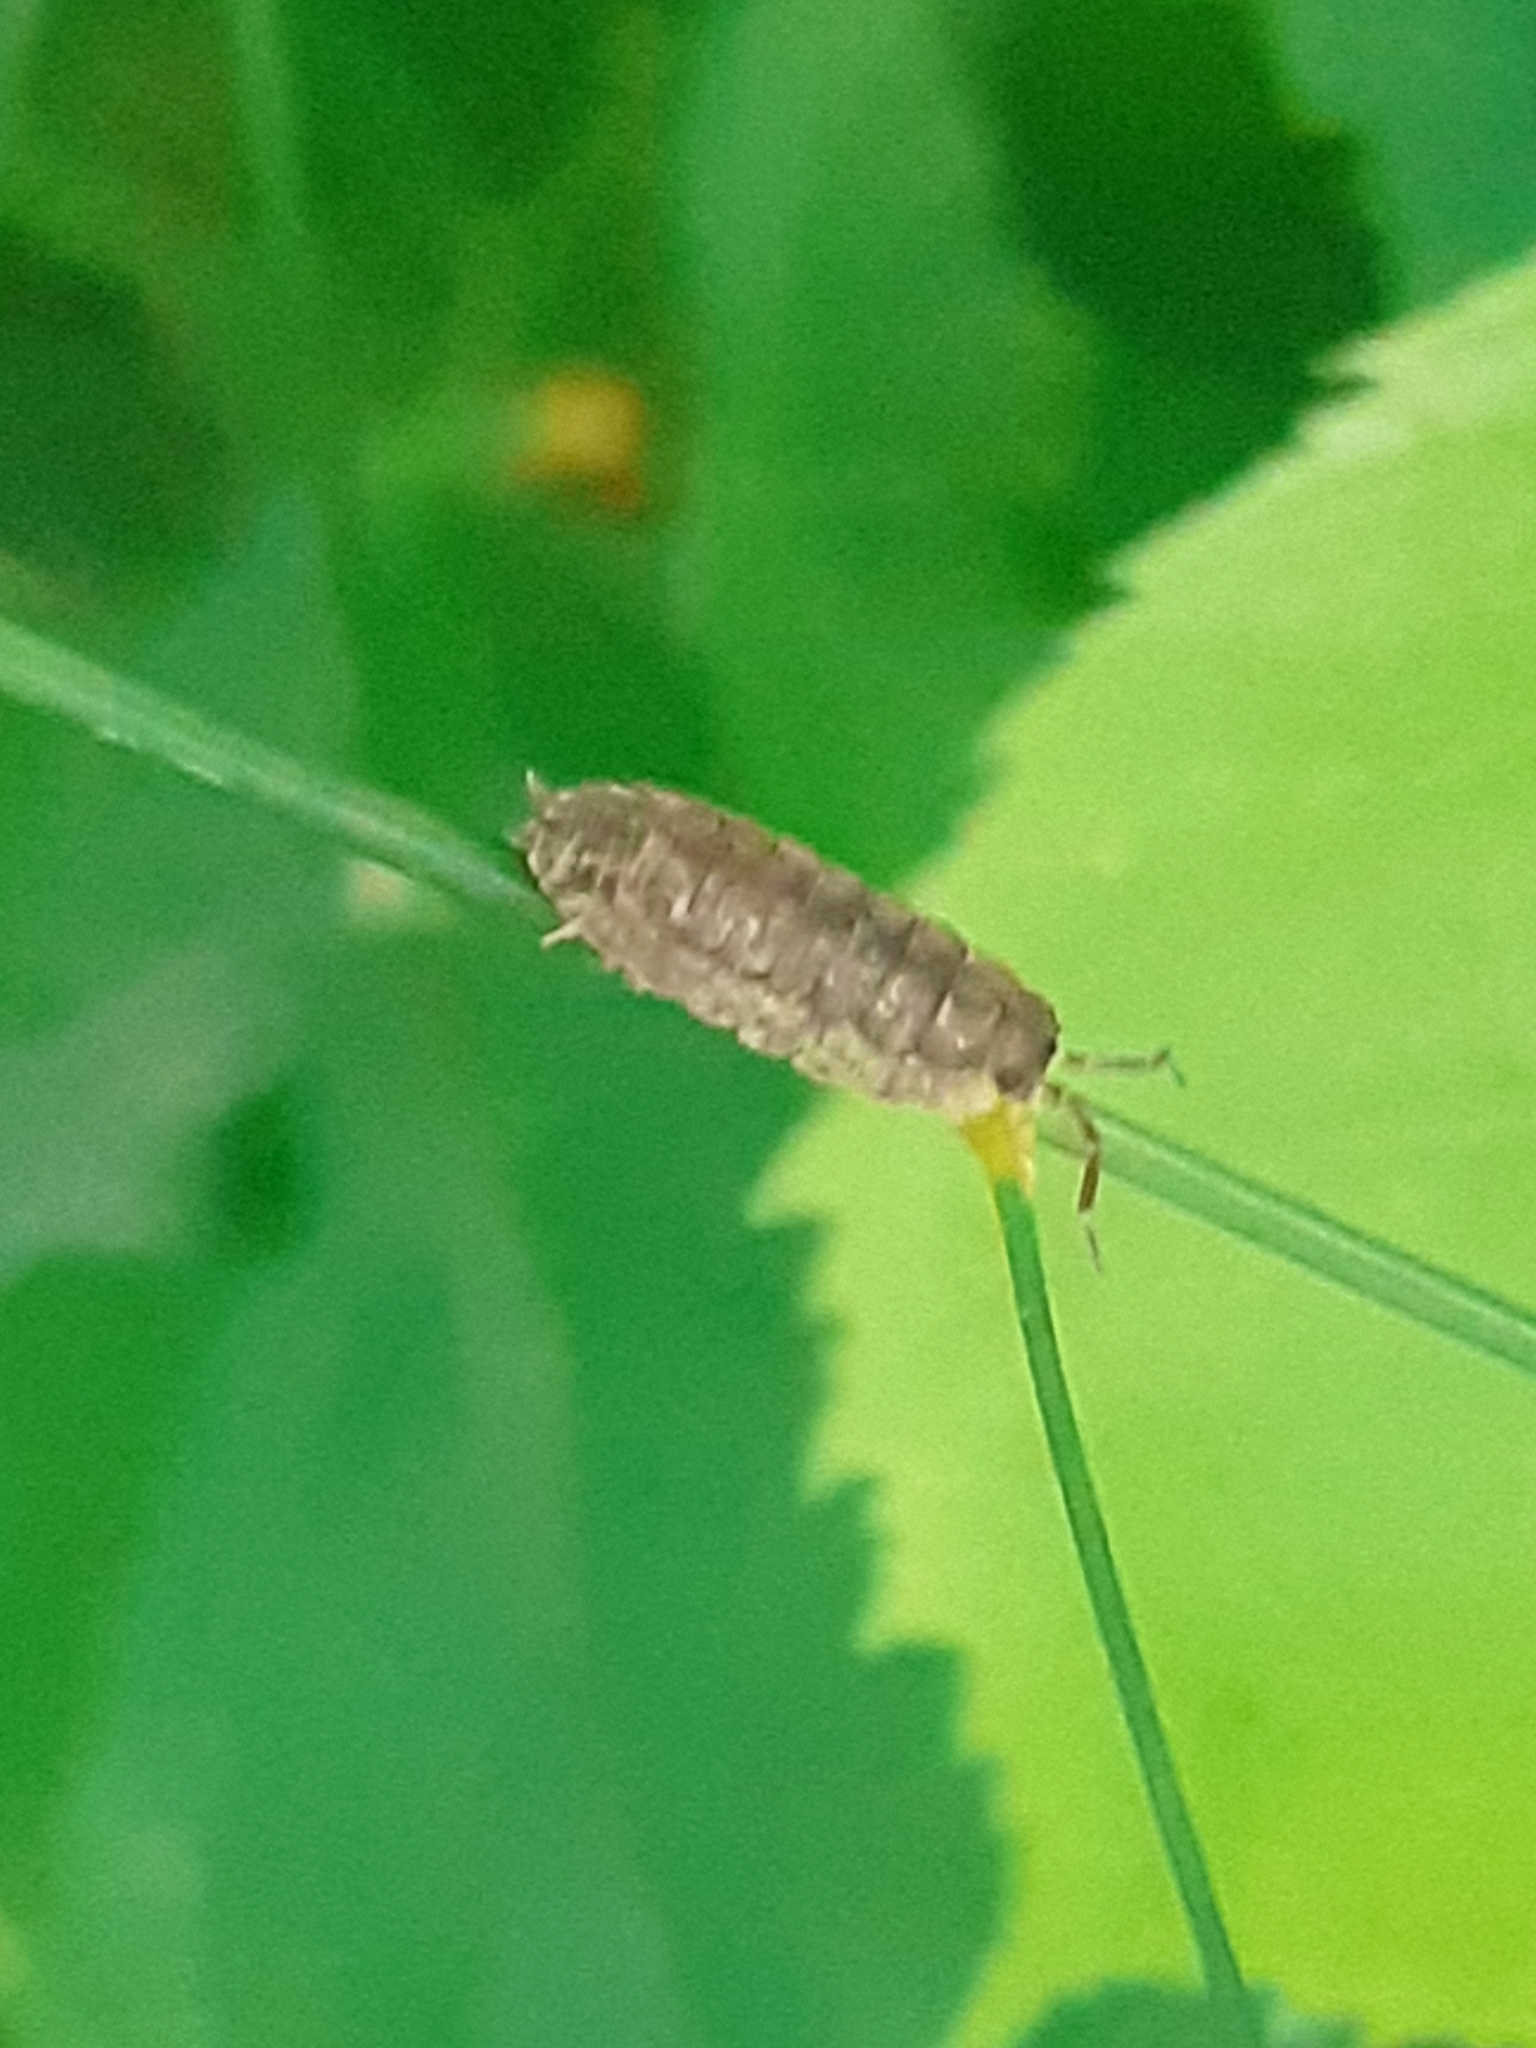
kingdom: Animalia
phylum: Arthropoda
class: Malacostraca
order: Isopoda
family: Porcellionidae
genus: Porcellio
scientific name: Porcellio scaber
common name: Common rough woodlouse
